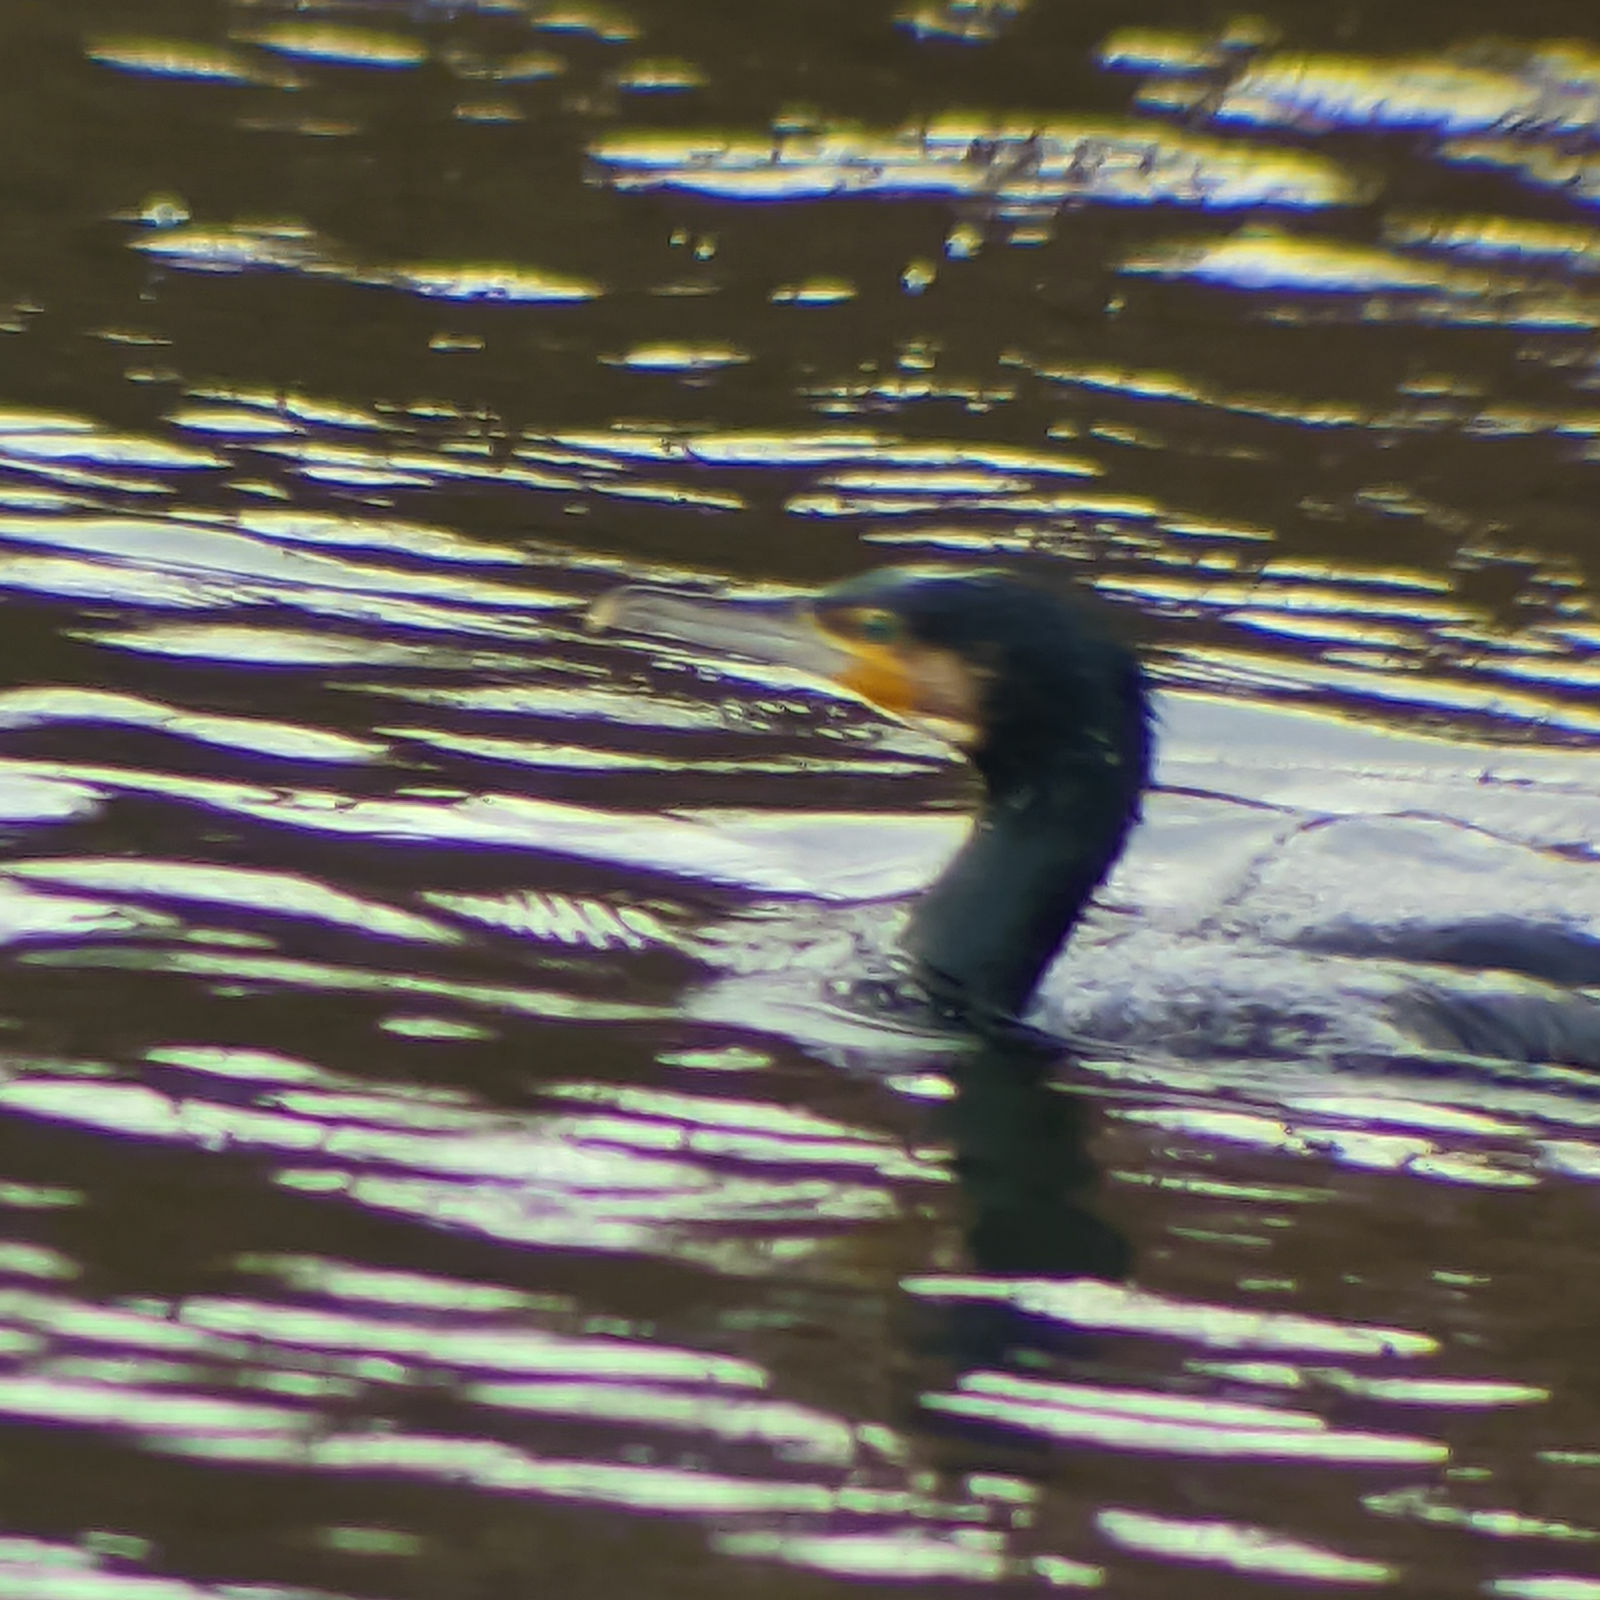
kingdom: Animalia
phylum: Chordata
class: Aves
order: Suliformes
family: Phalacrocoracidae
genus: Phalacrocorax
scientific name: Phalacrocorax carbo
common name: Great cormorant
